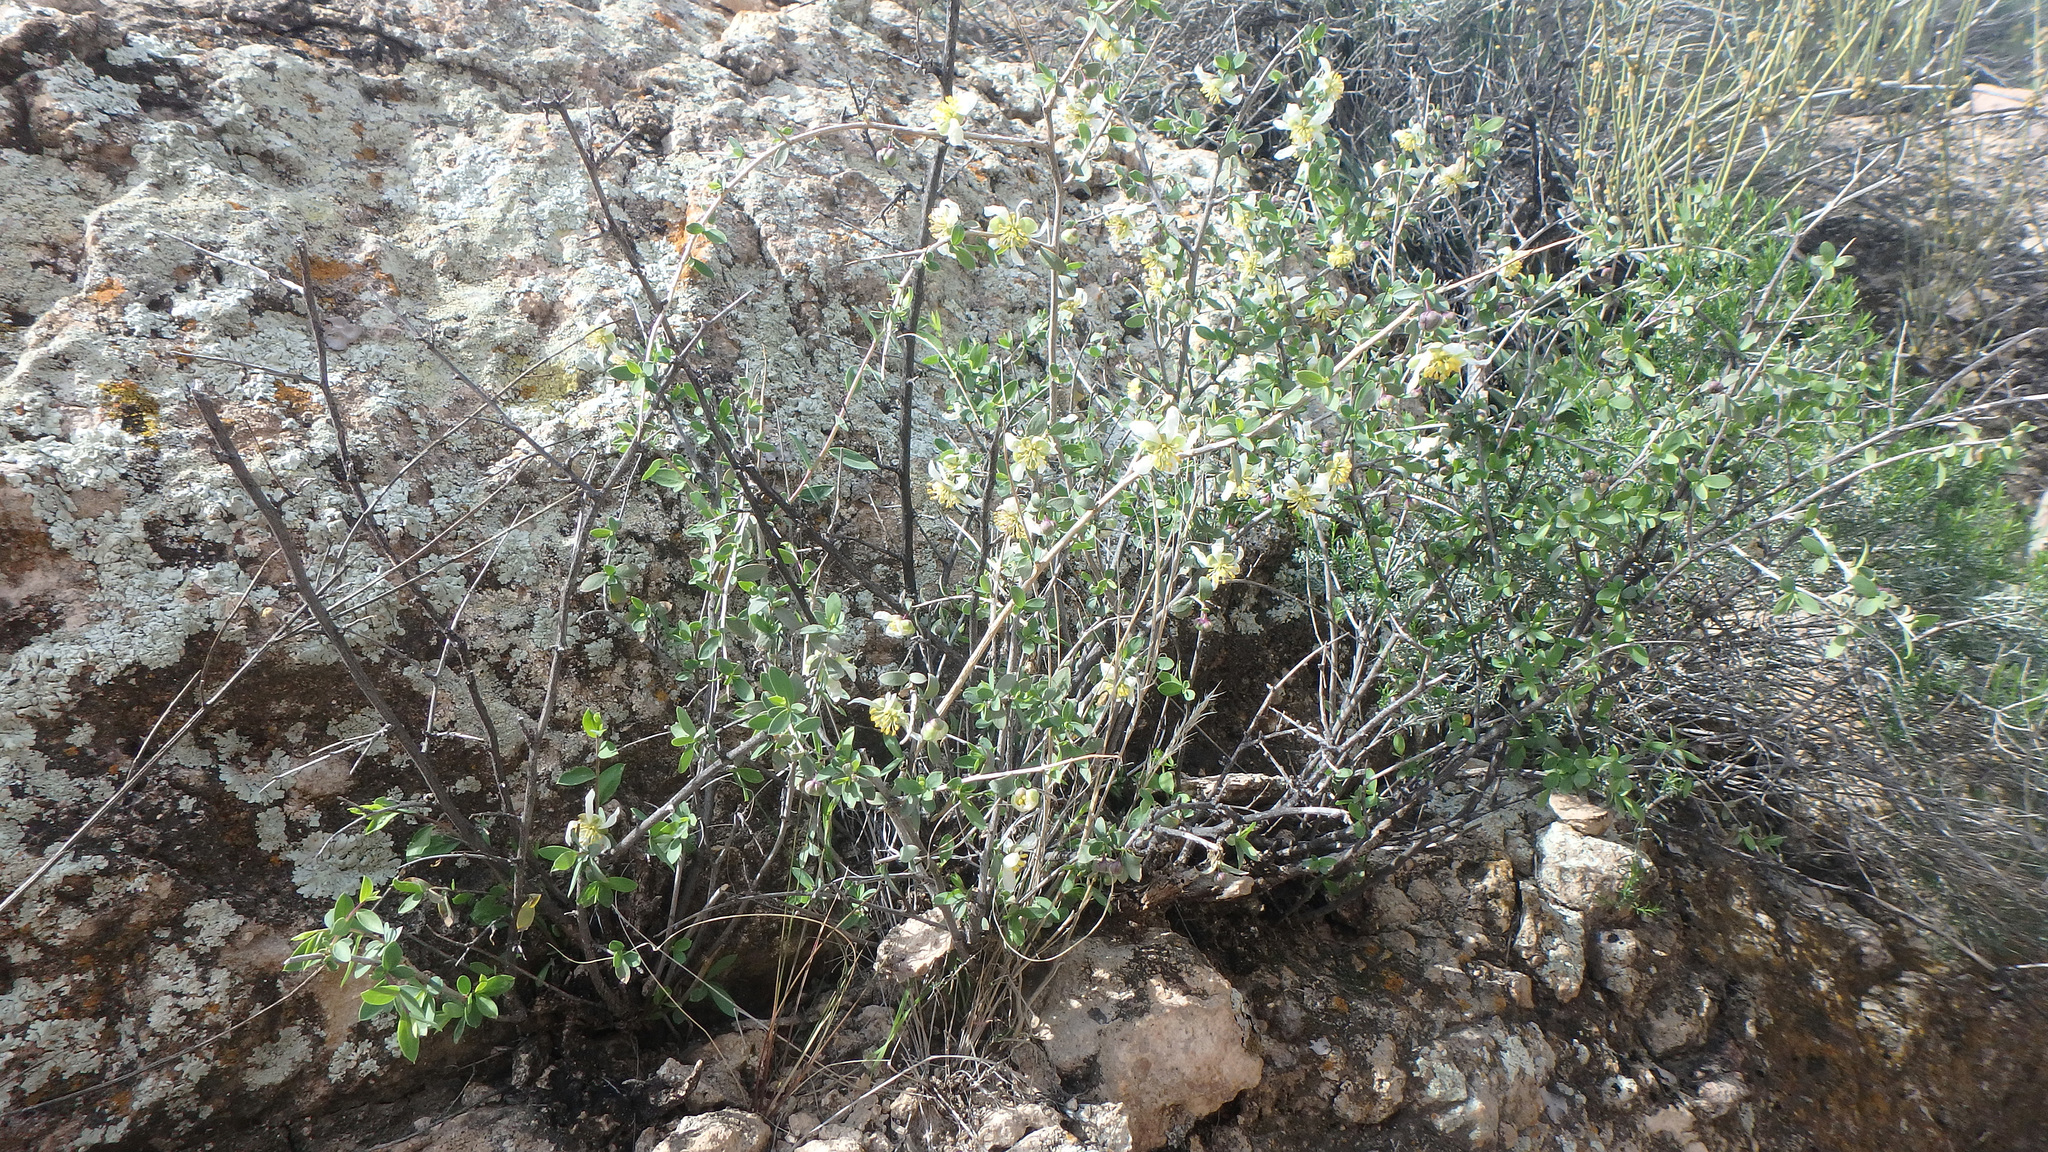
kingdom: Plantae
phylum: Tracheophyta
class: Magnoliopsida
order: Crossosomatales
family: Crossosomataceae
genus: Crossosoma
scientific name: Crossosoma bigelovii
